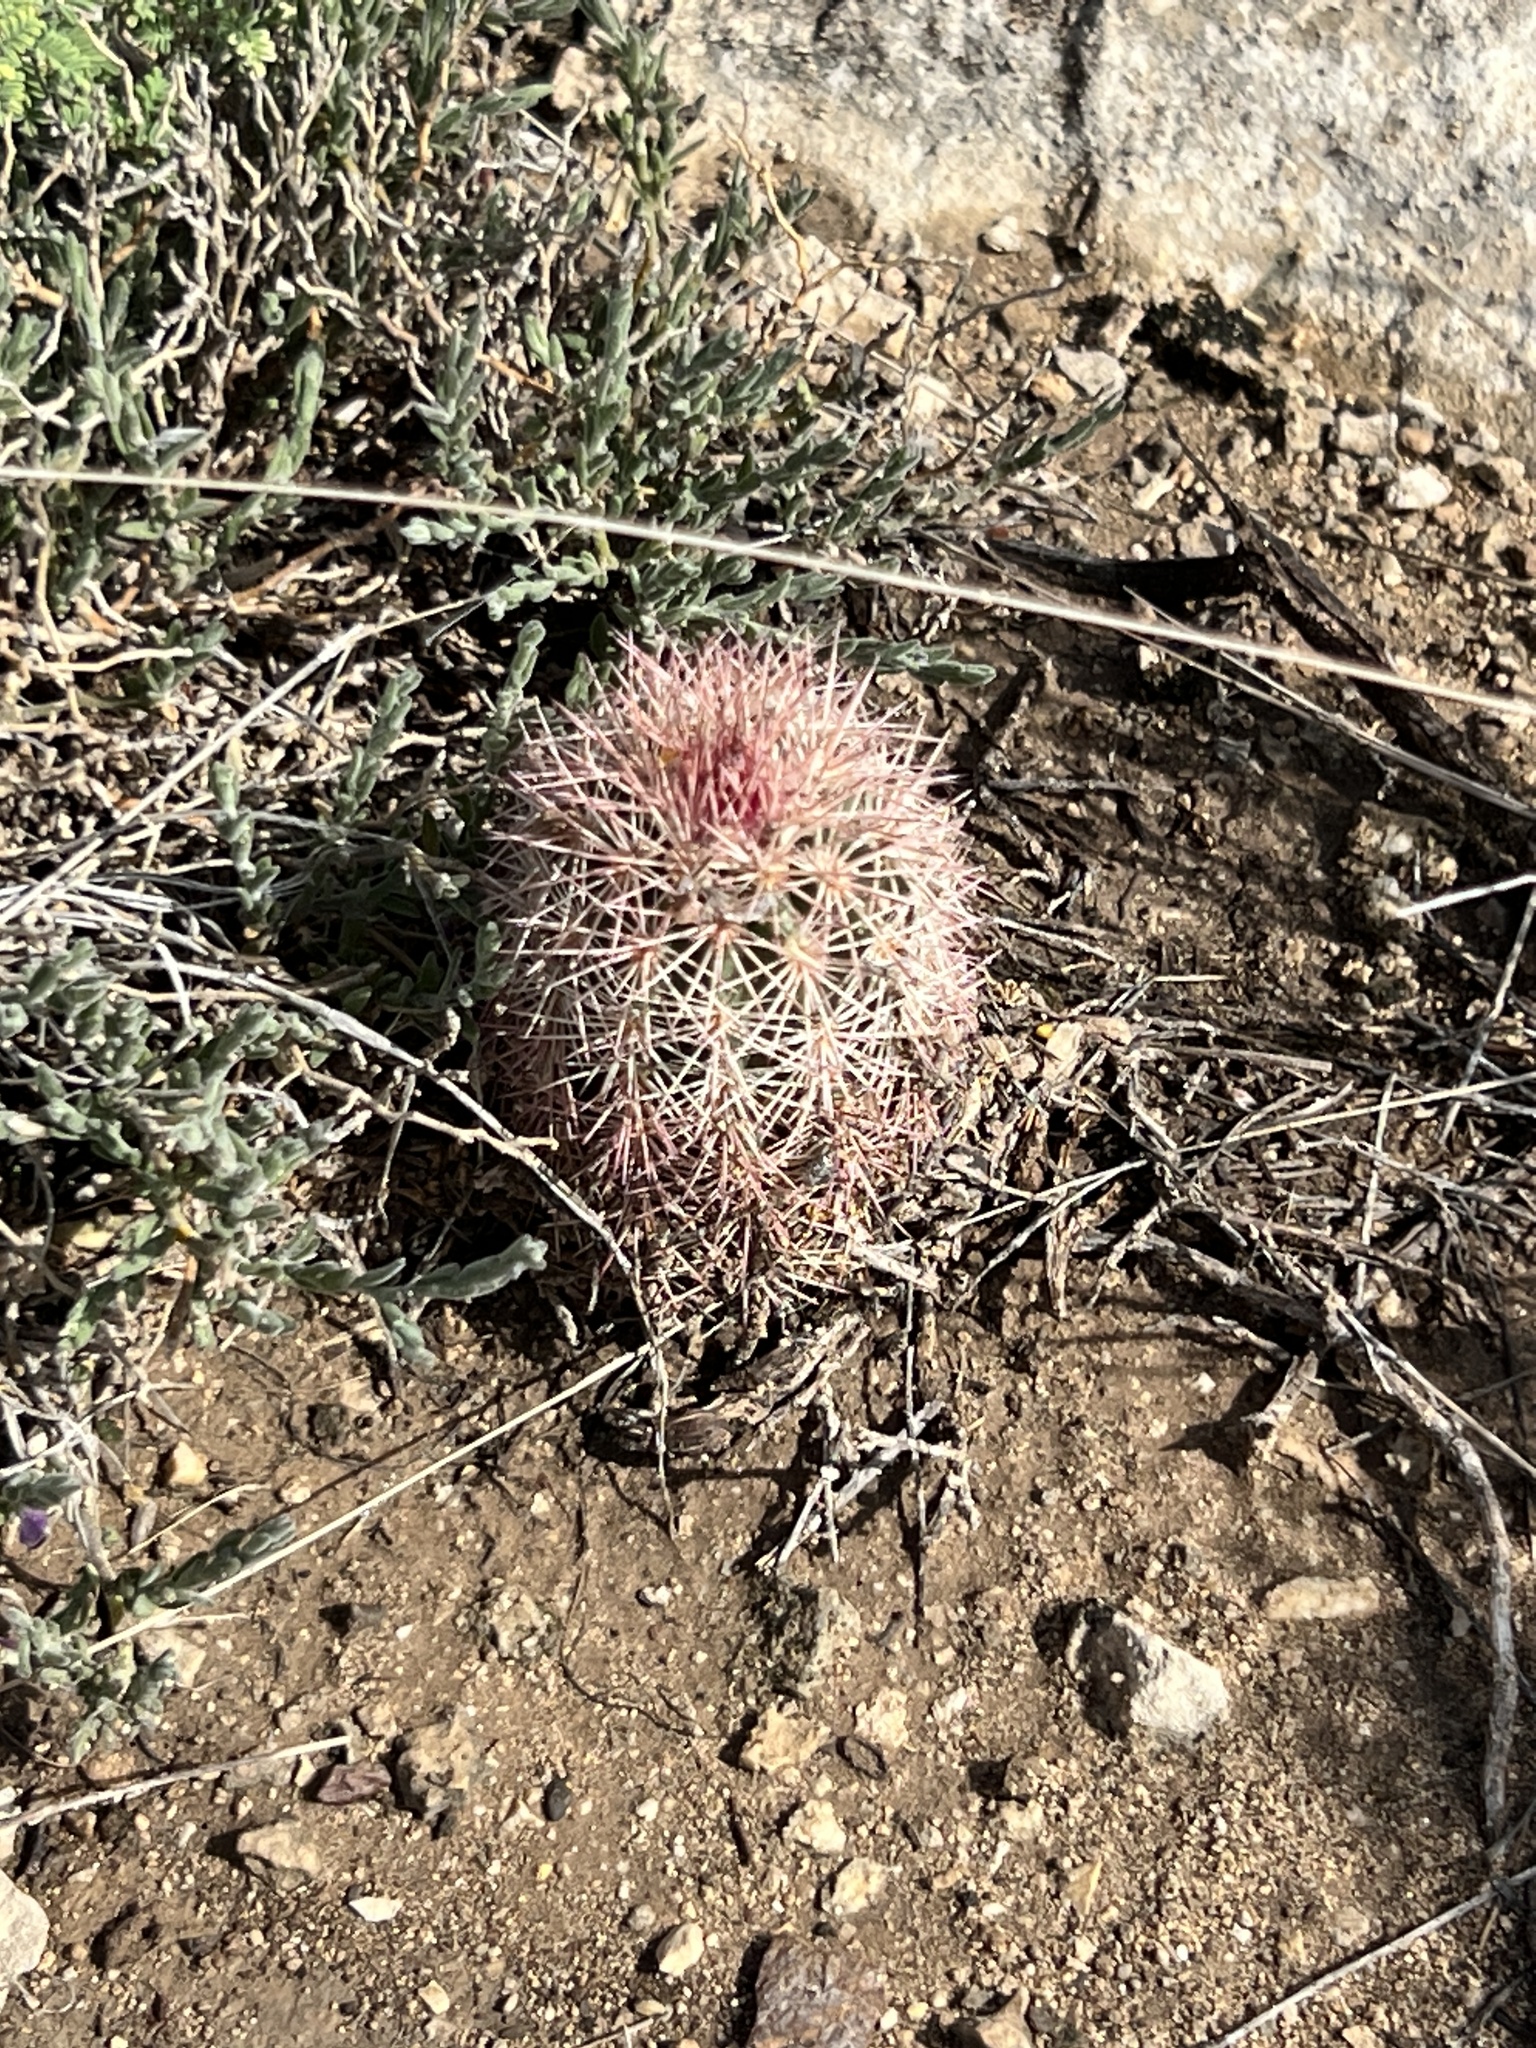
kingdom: Plantae
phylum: Tracheophyta
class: Magnoliopsida
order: Caryophyllales
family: Cactaceae
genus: Echinocereus
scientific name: Echinocereus dasyacanthus
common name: Spiny hedgehog cactus
